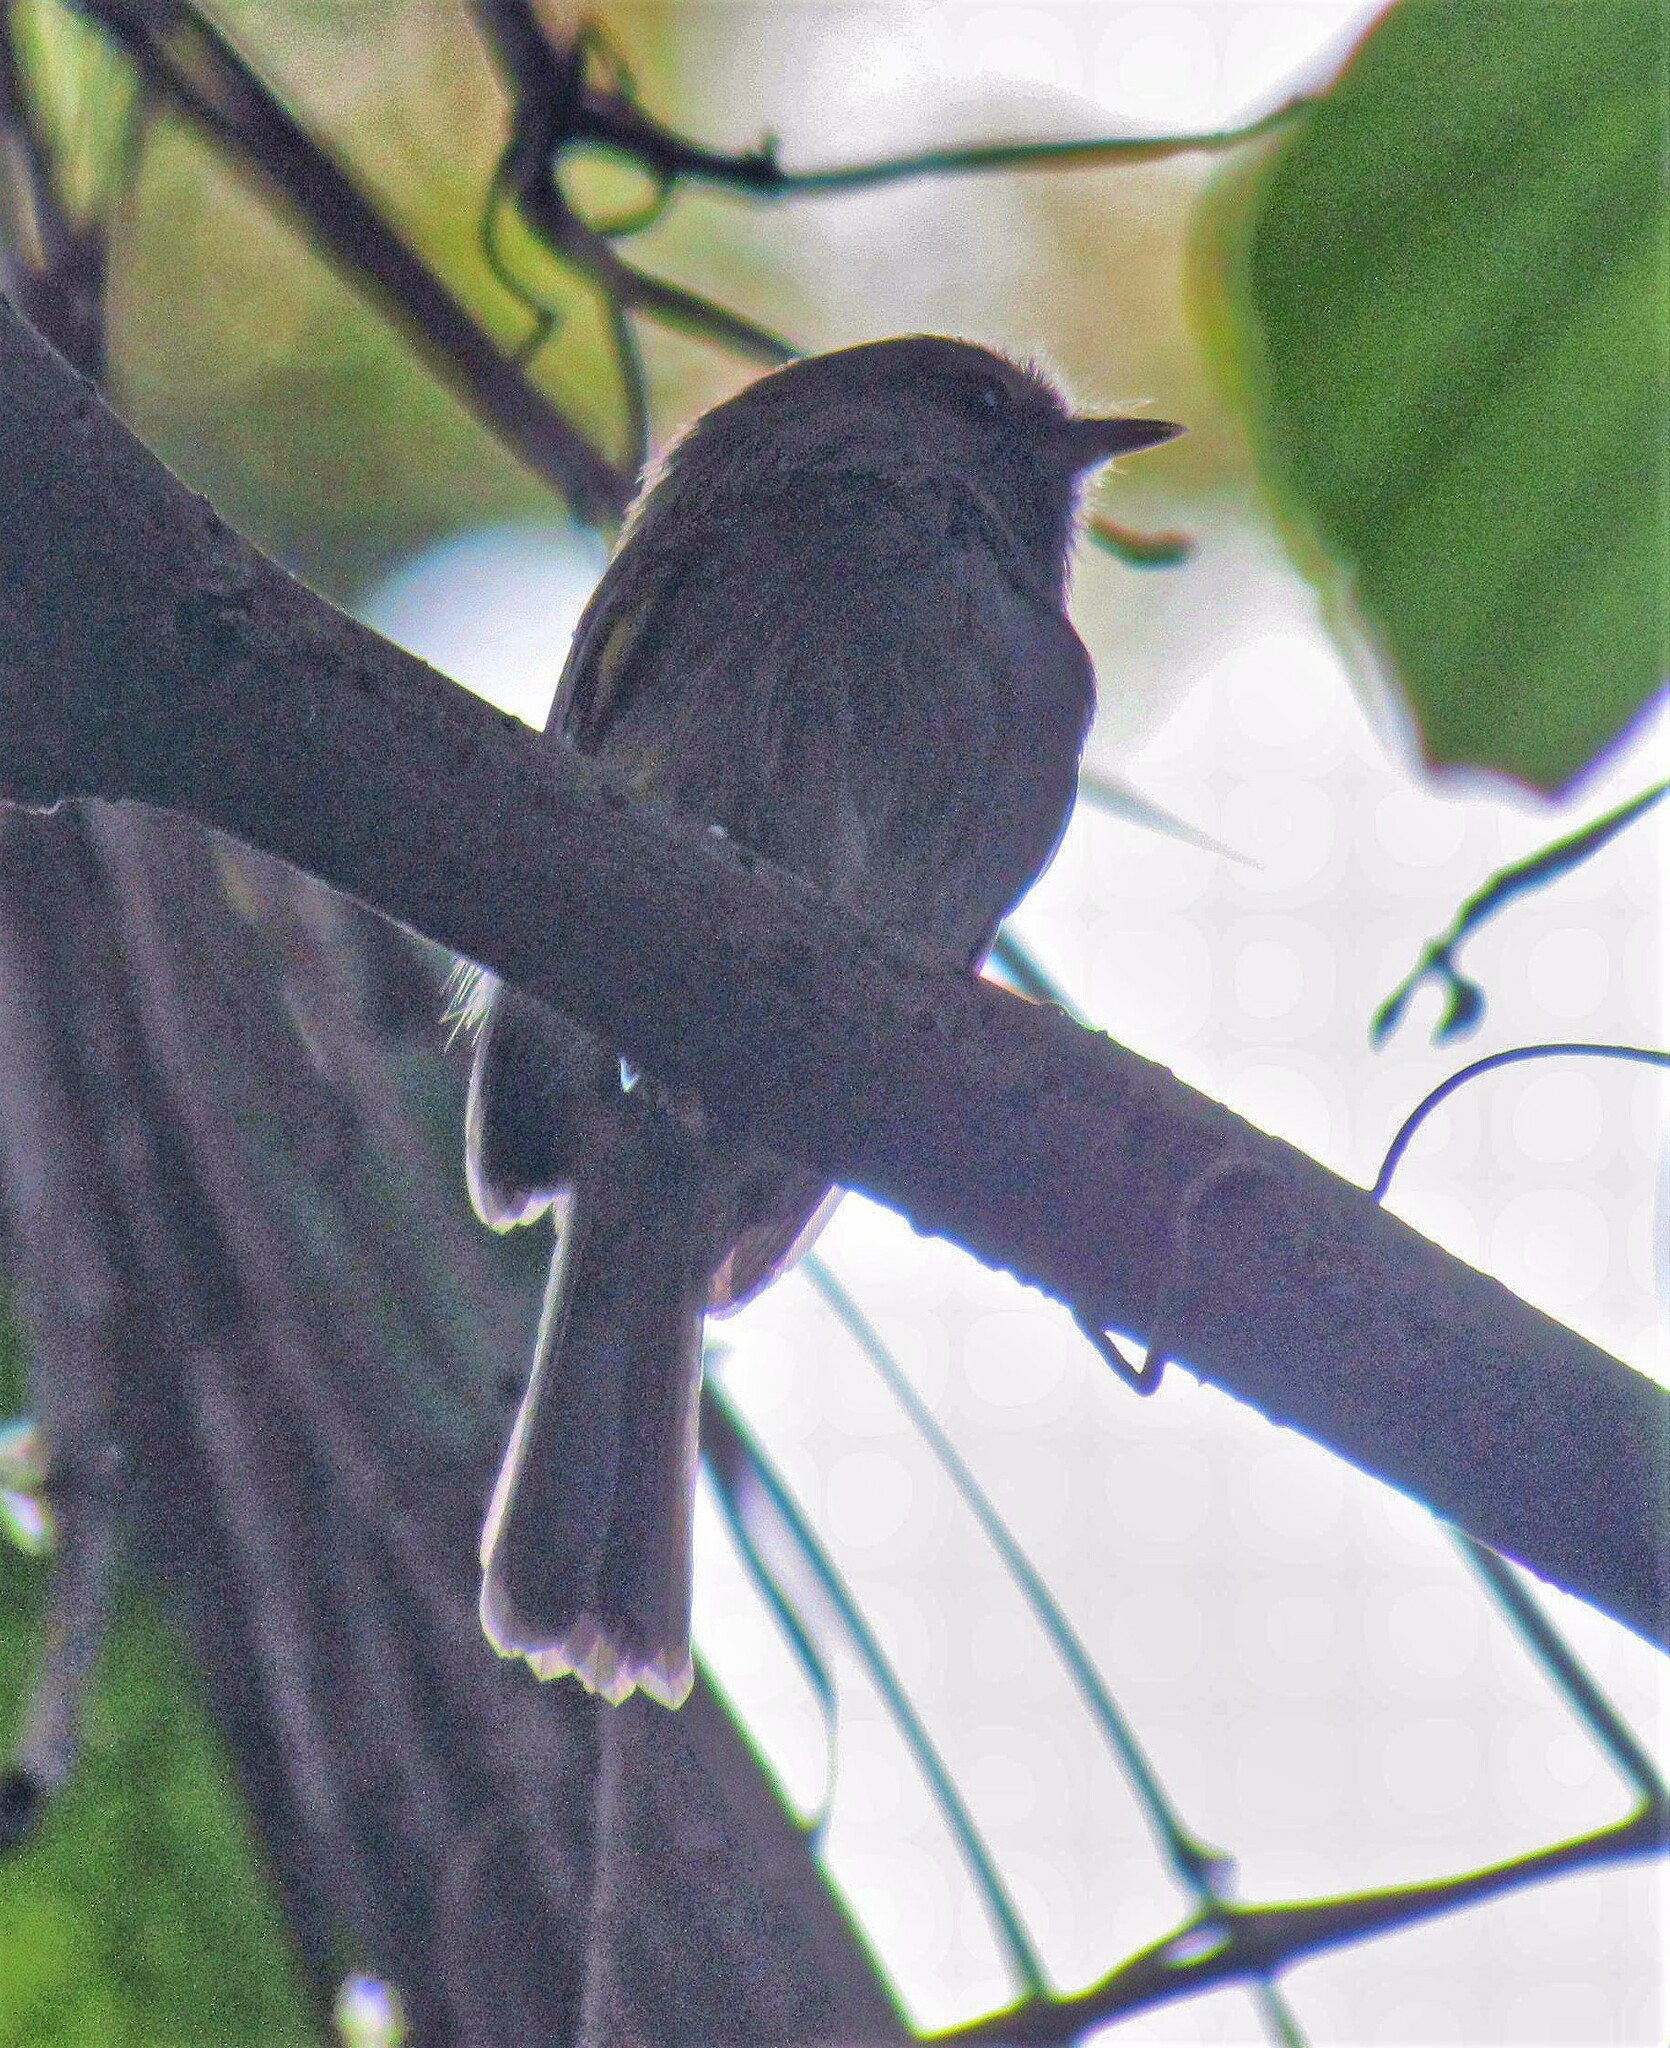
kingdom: Animalia
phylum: Chordata
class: Aves
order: Passeriformes
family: Tyrannidae
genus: Hemitriccus
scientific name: Hemitriccus diops
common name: Drab-breasted bamboo tyrant
